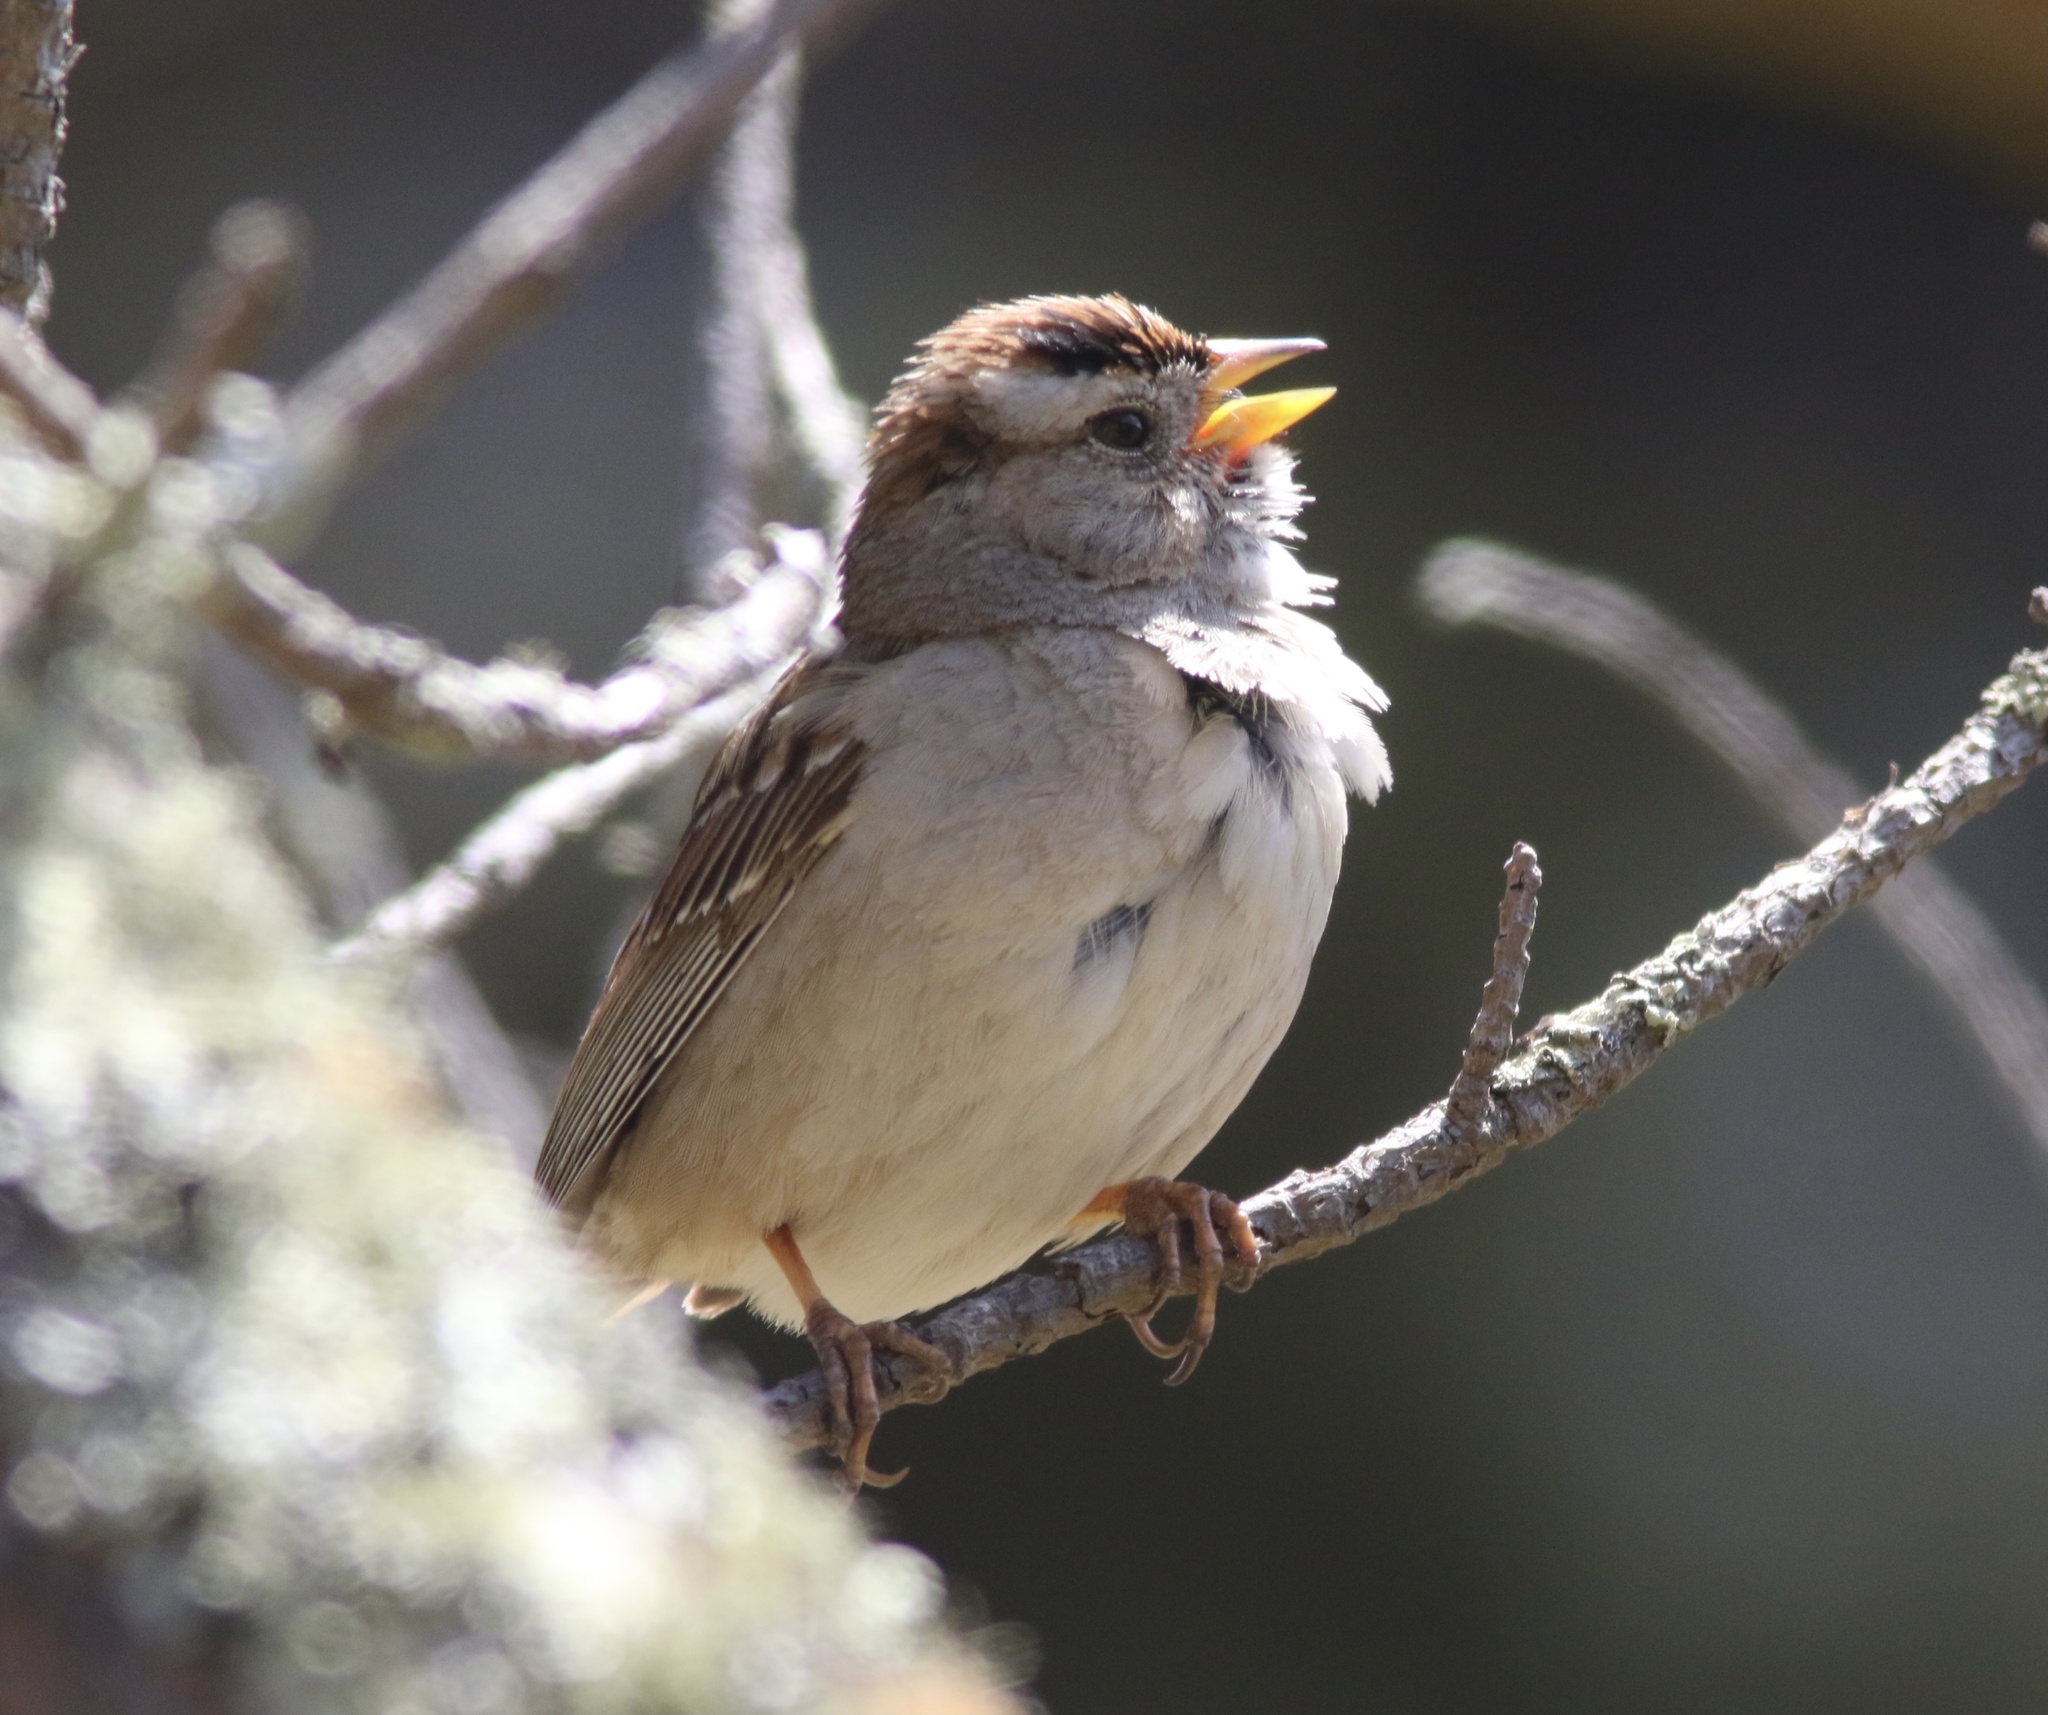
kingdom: Animalia
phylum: Chordata
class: Aves
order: Passeriformes
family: Passerellidae
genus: Zonotrichia
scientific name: Zonotrichia leucophrys
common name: White-crowned sparrow
